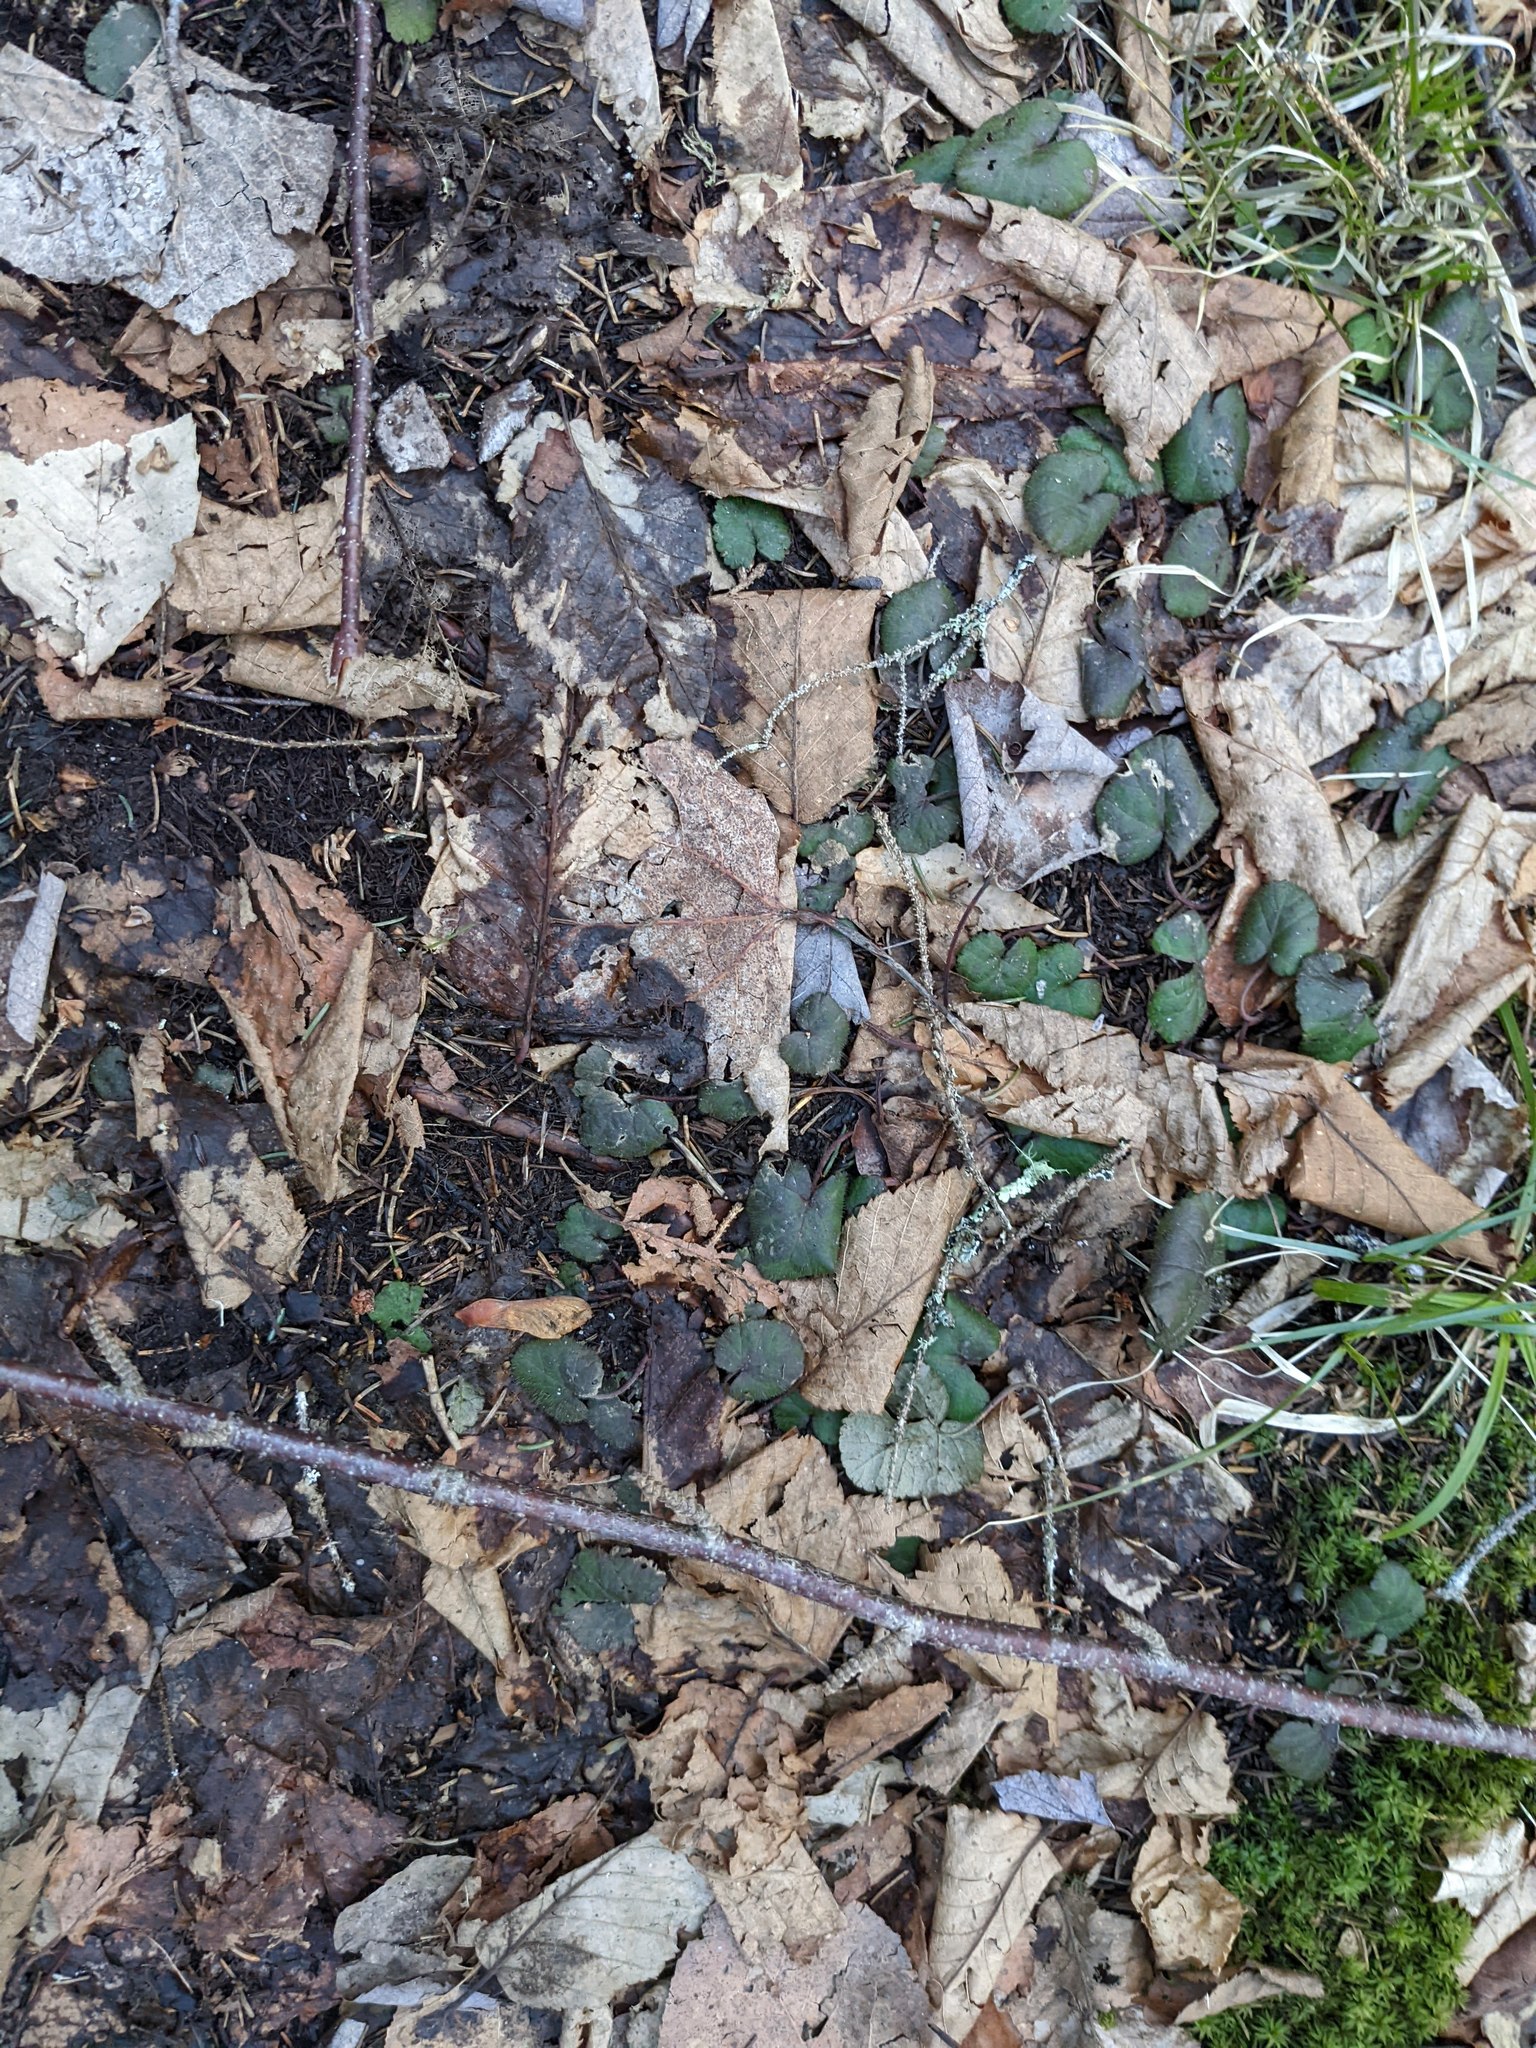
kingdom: Plantae
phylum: Tracheophyta
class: Magnoliopsida
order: Rosales
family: Rosaceae
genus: Dalibarda
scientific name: Dalibarda repens
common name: Dewdrop
